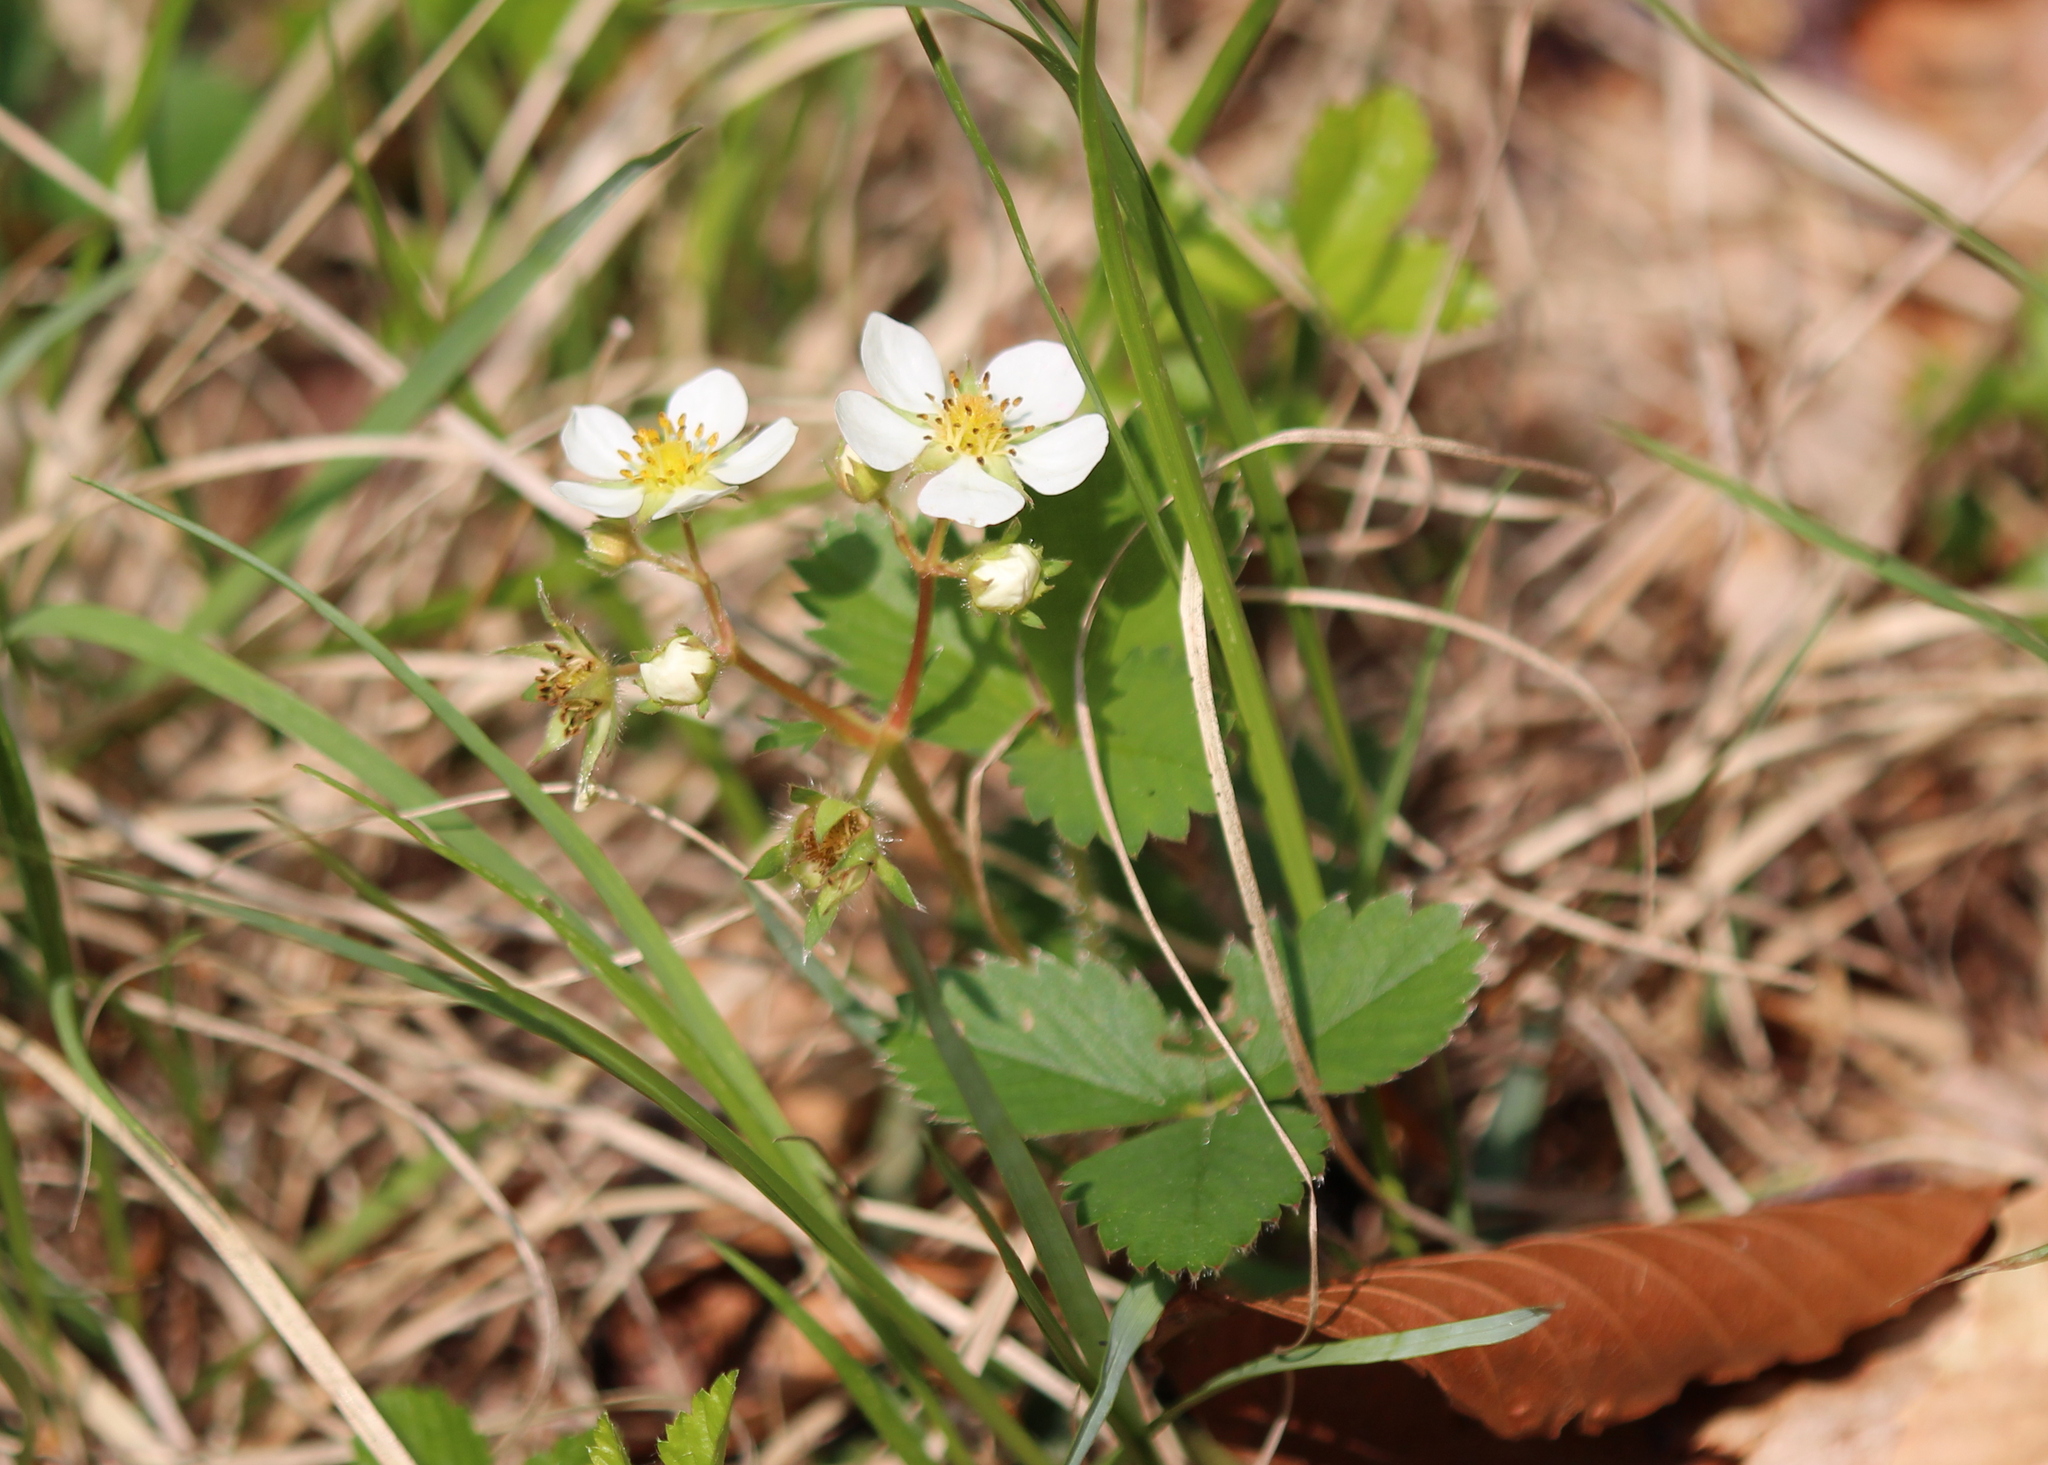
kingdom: Plantae
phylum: Tracheophyta
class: Magnoliopsida
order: Rosales
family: Rosaceae
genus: Fragaria
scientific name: Fragaria virginiana
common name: Thickleaved wild strawberry
